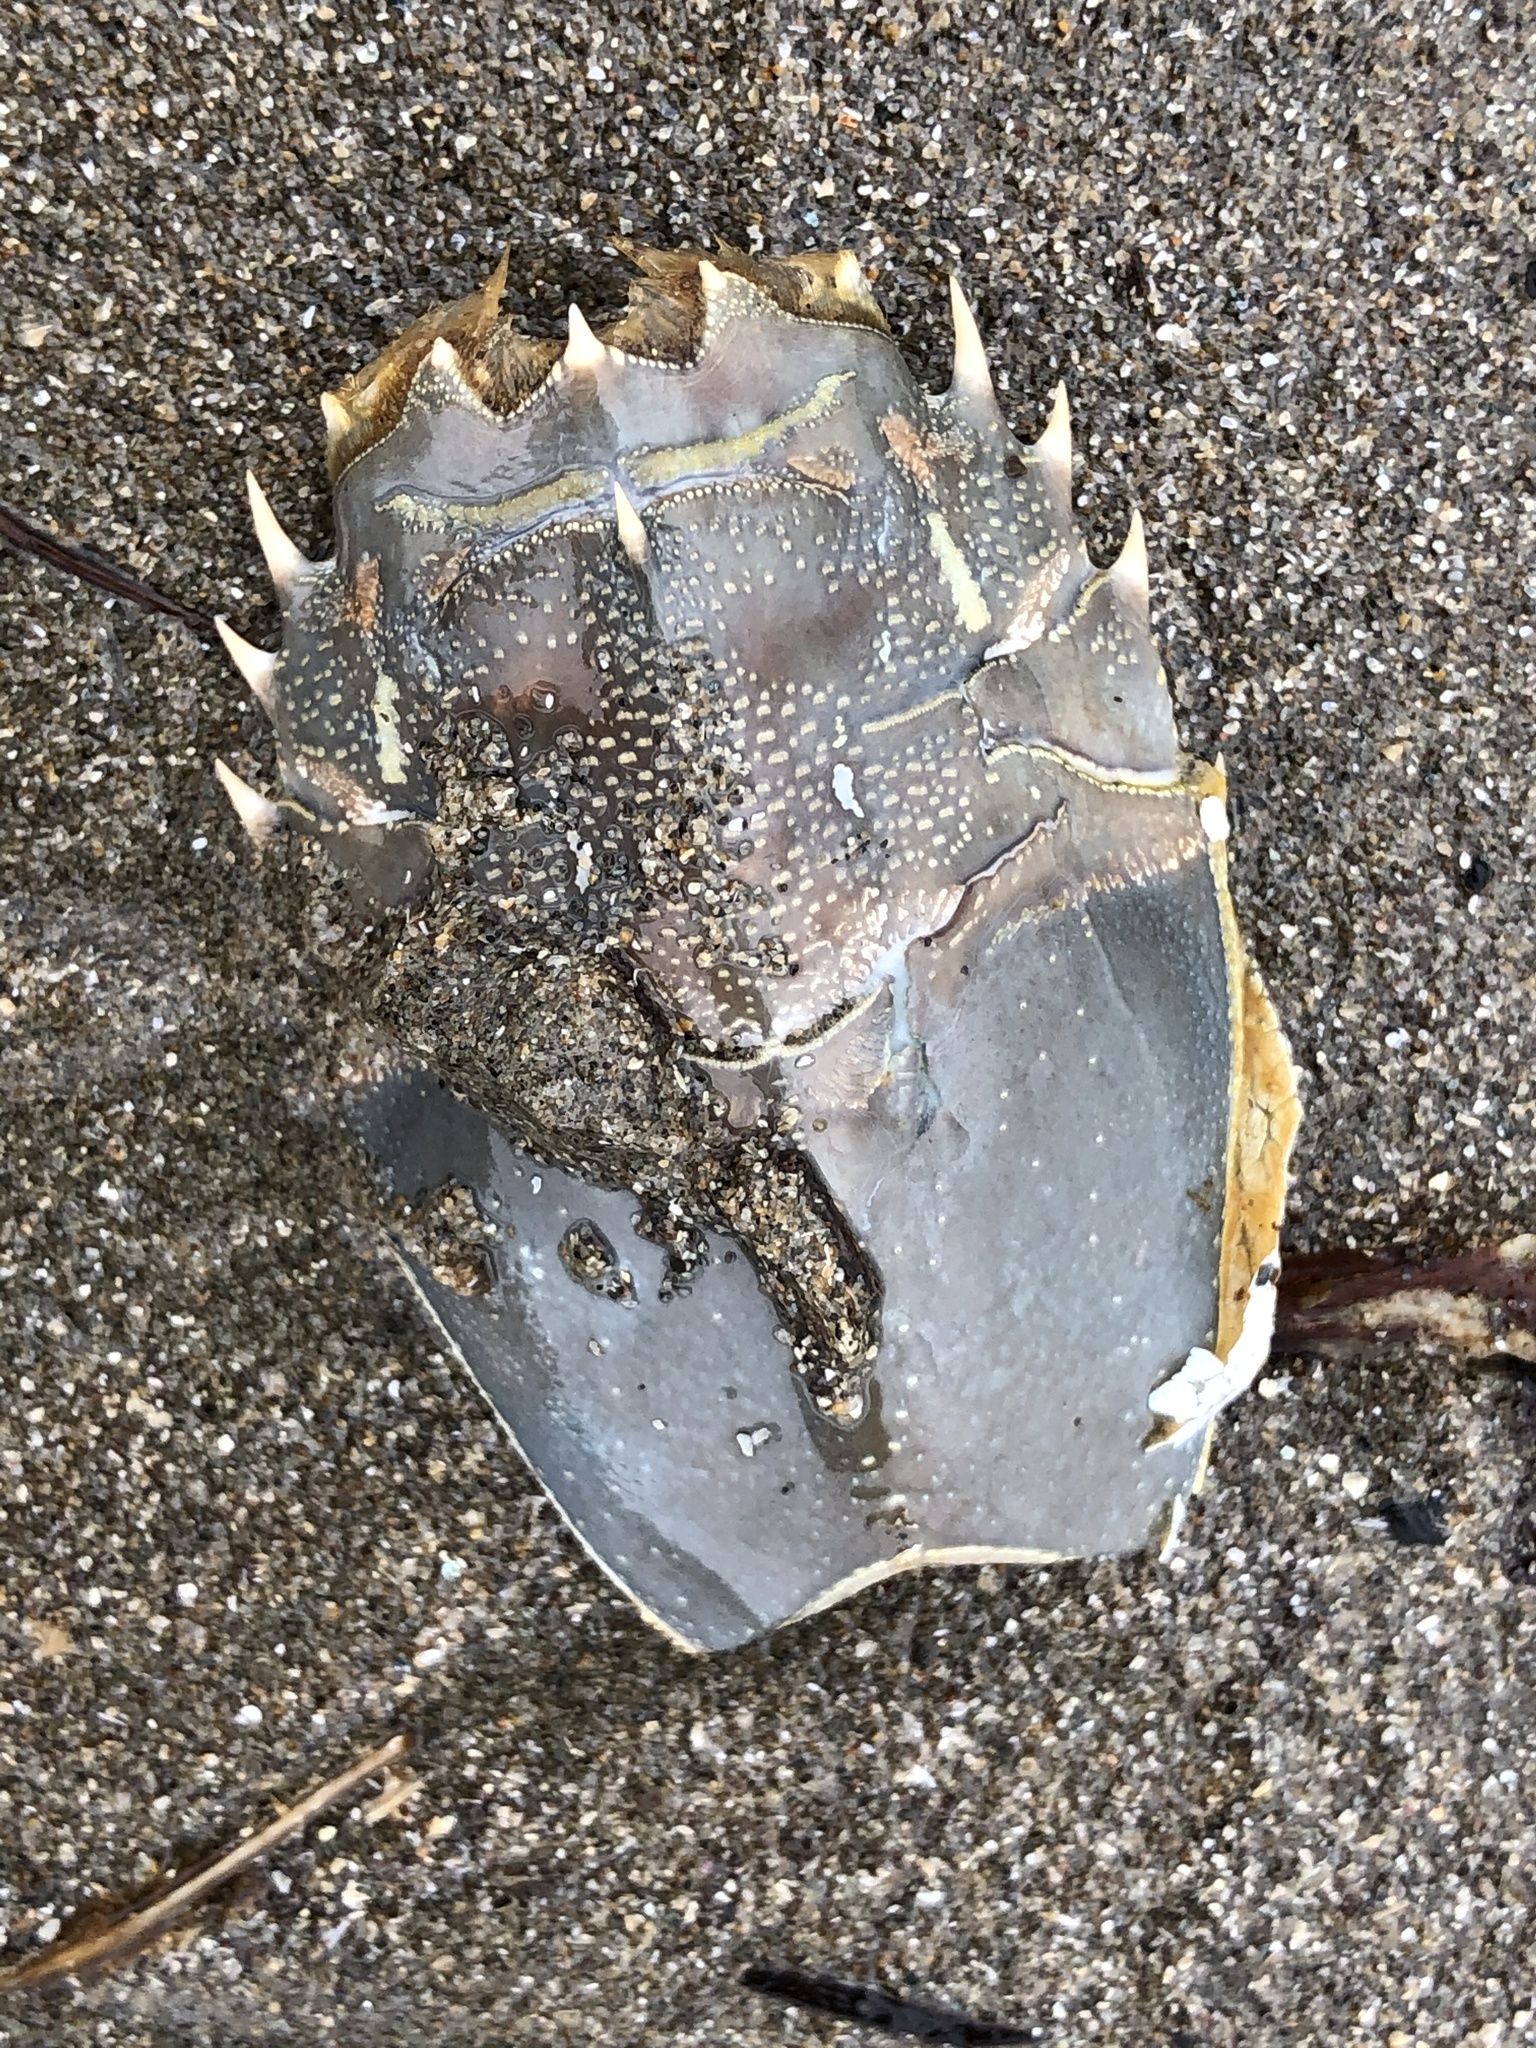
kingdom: Animalia
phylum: Arthropoda
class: Malacostraca
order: Decapoda
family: Blepharipodidae
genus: Blepharipoda
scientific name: Blepharipoda occidentalis
